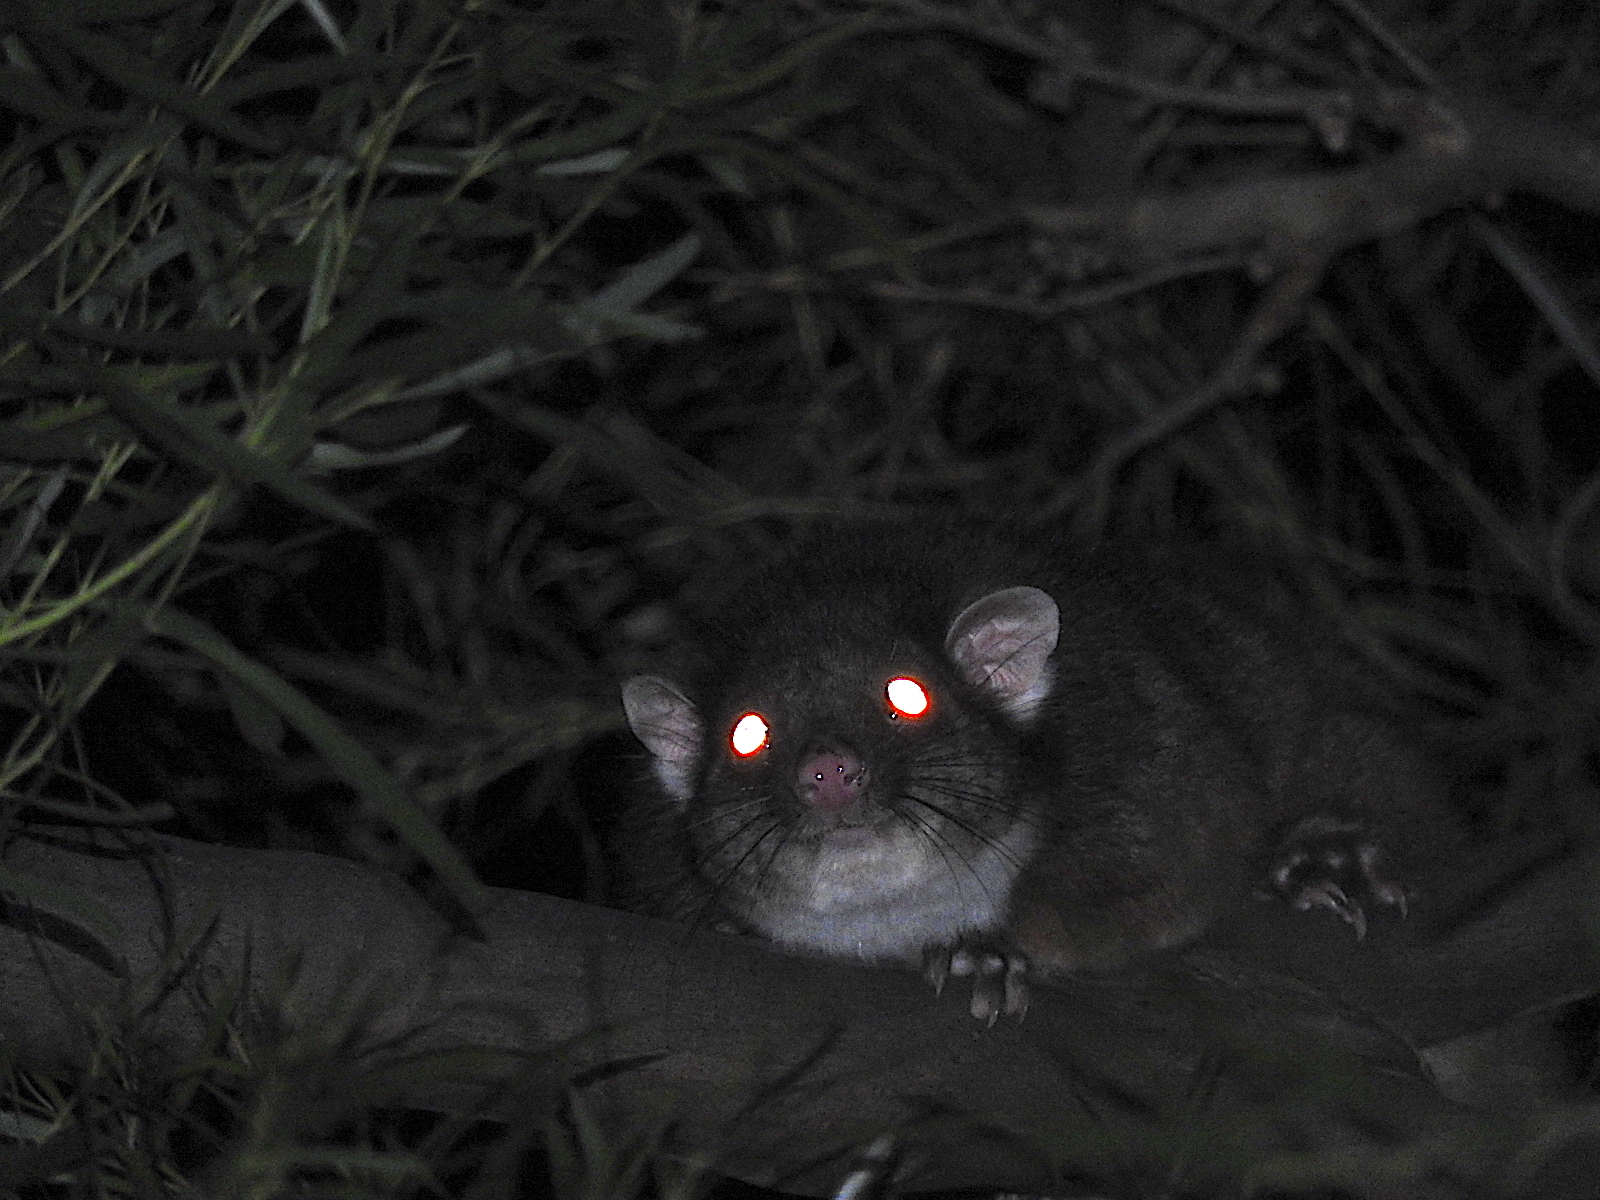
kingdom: Animalia
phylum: Chordata
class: Mammalia
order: Diprotodontia
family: Pseudocheiridae
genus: Pseudocheirus
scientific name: Pseudocheirus peregrinus
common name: Common ringtail possum
